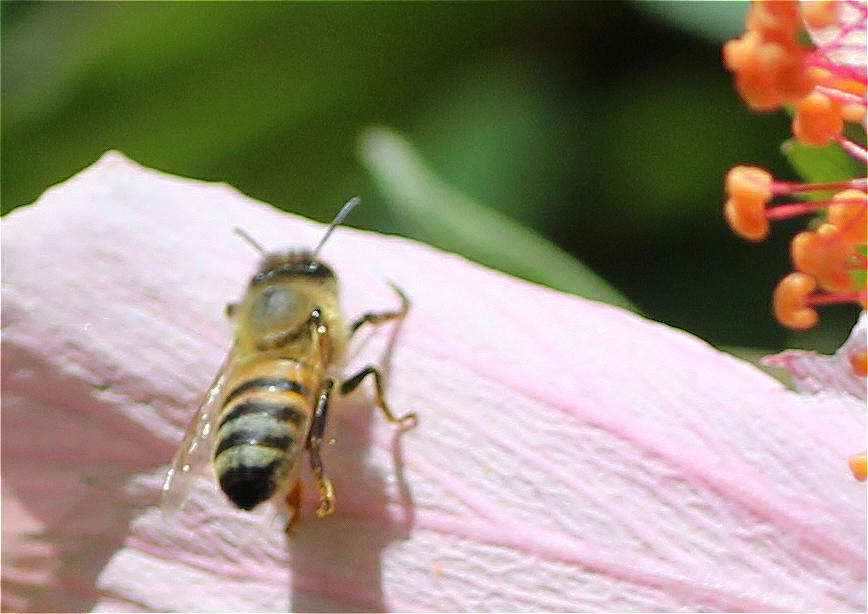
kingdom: Animalia
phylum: Arthropoda
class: Insecta
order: Hymenoptera
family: Apidae
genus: Apis
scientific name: Apis mellifera
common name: Honey bee
